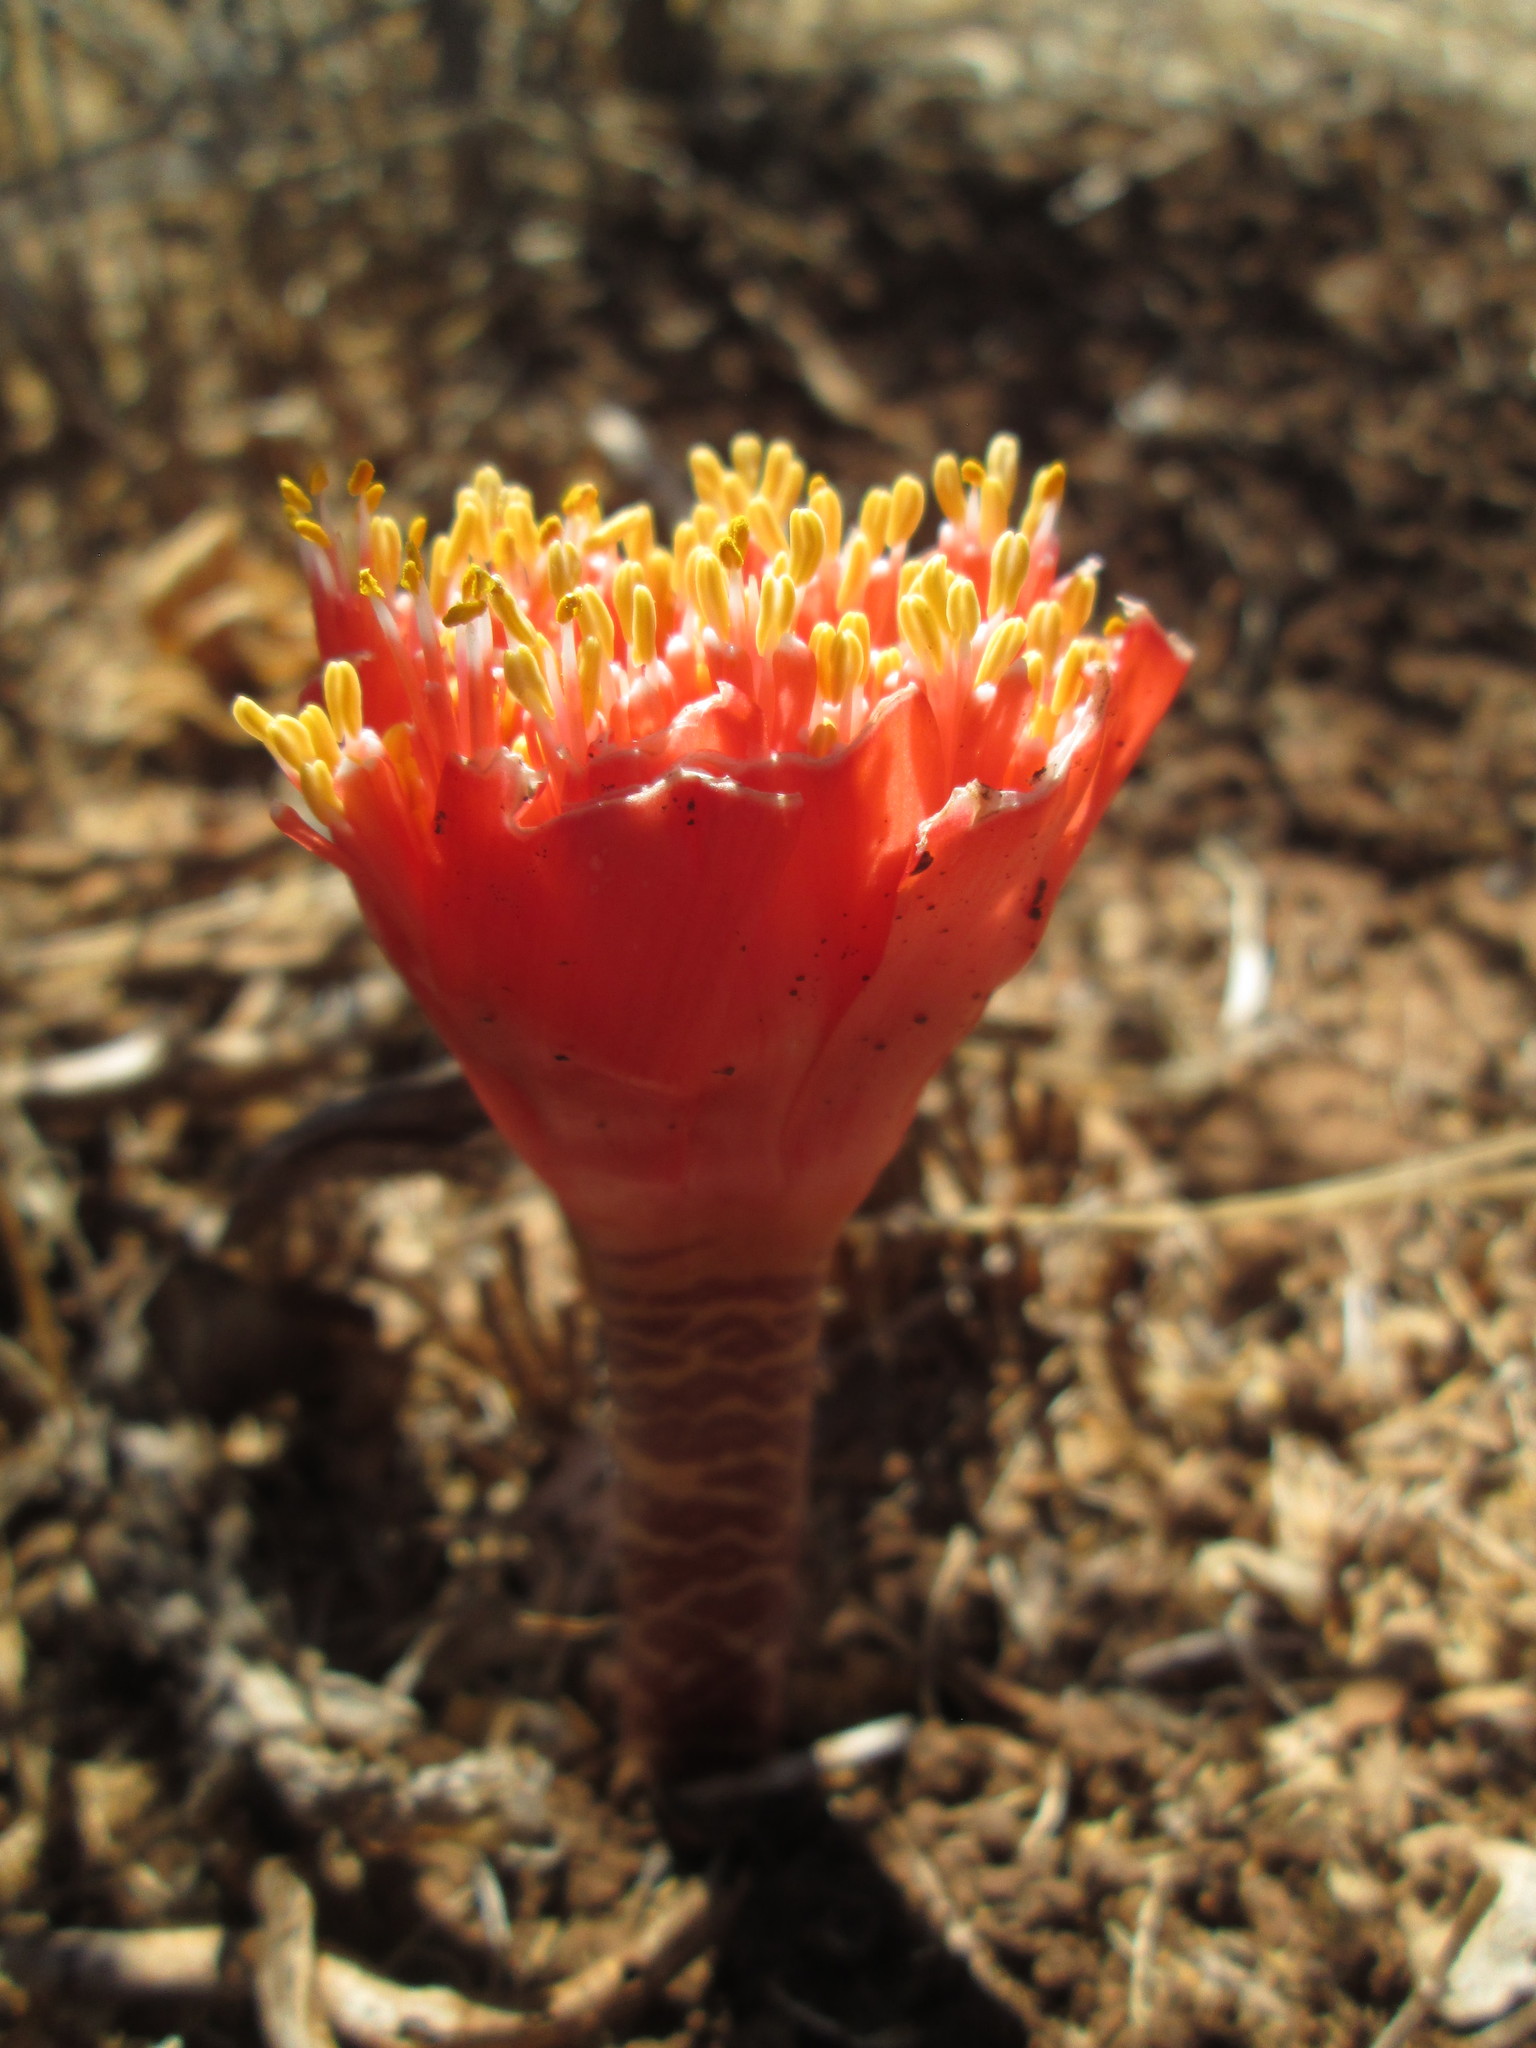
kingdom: Plantae
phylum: Tracheophyta
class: Liliopsida
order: Asparagales
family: Amaryllidaceae
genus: Haemanthus
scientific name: Haemanthus coccineus
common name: Cape-tulip
